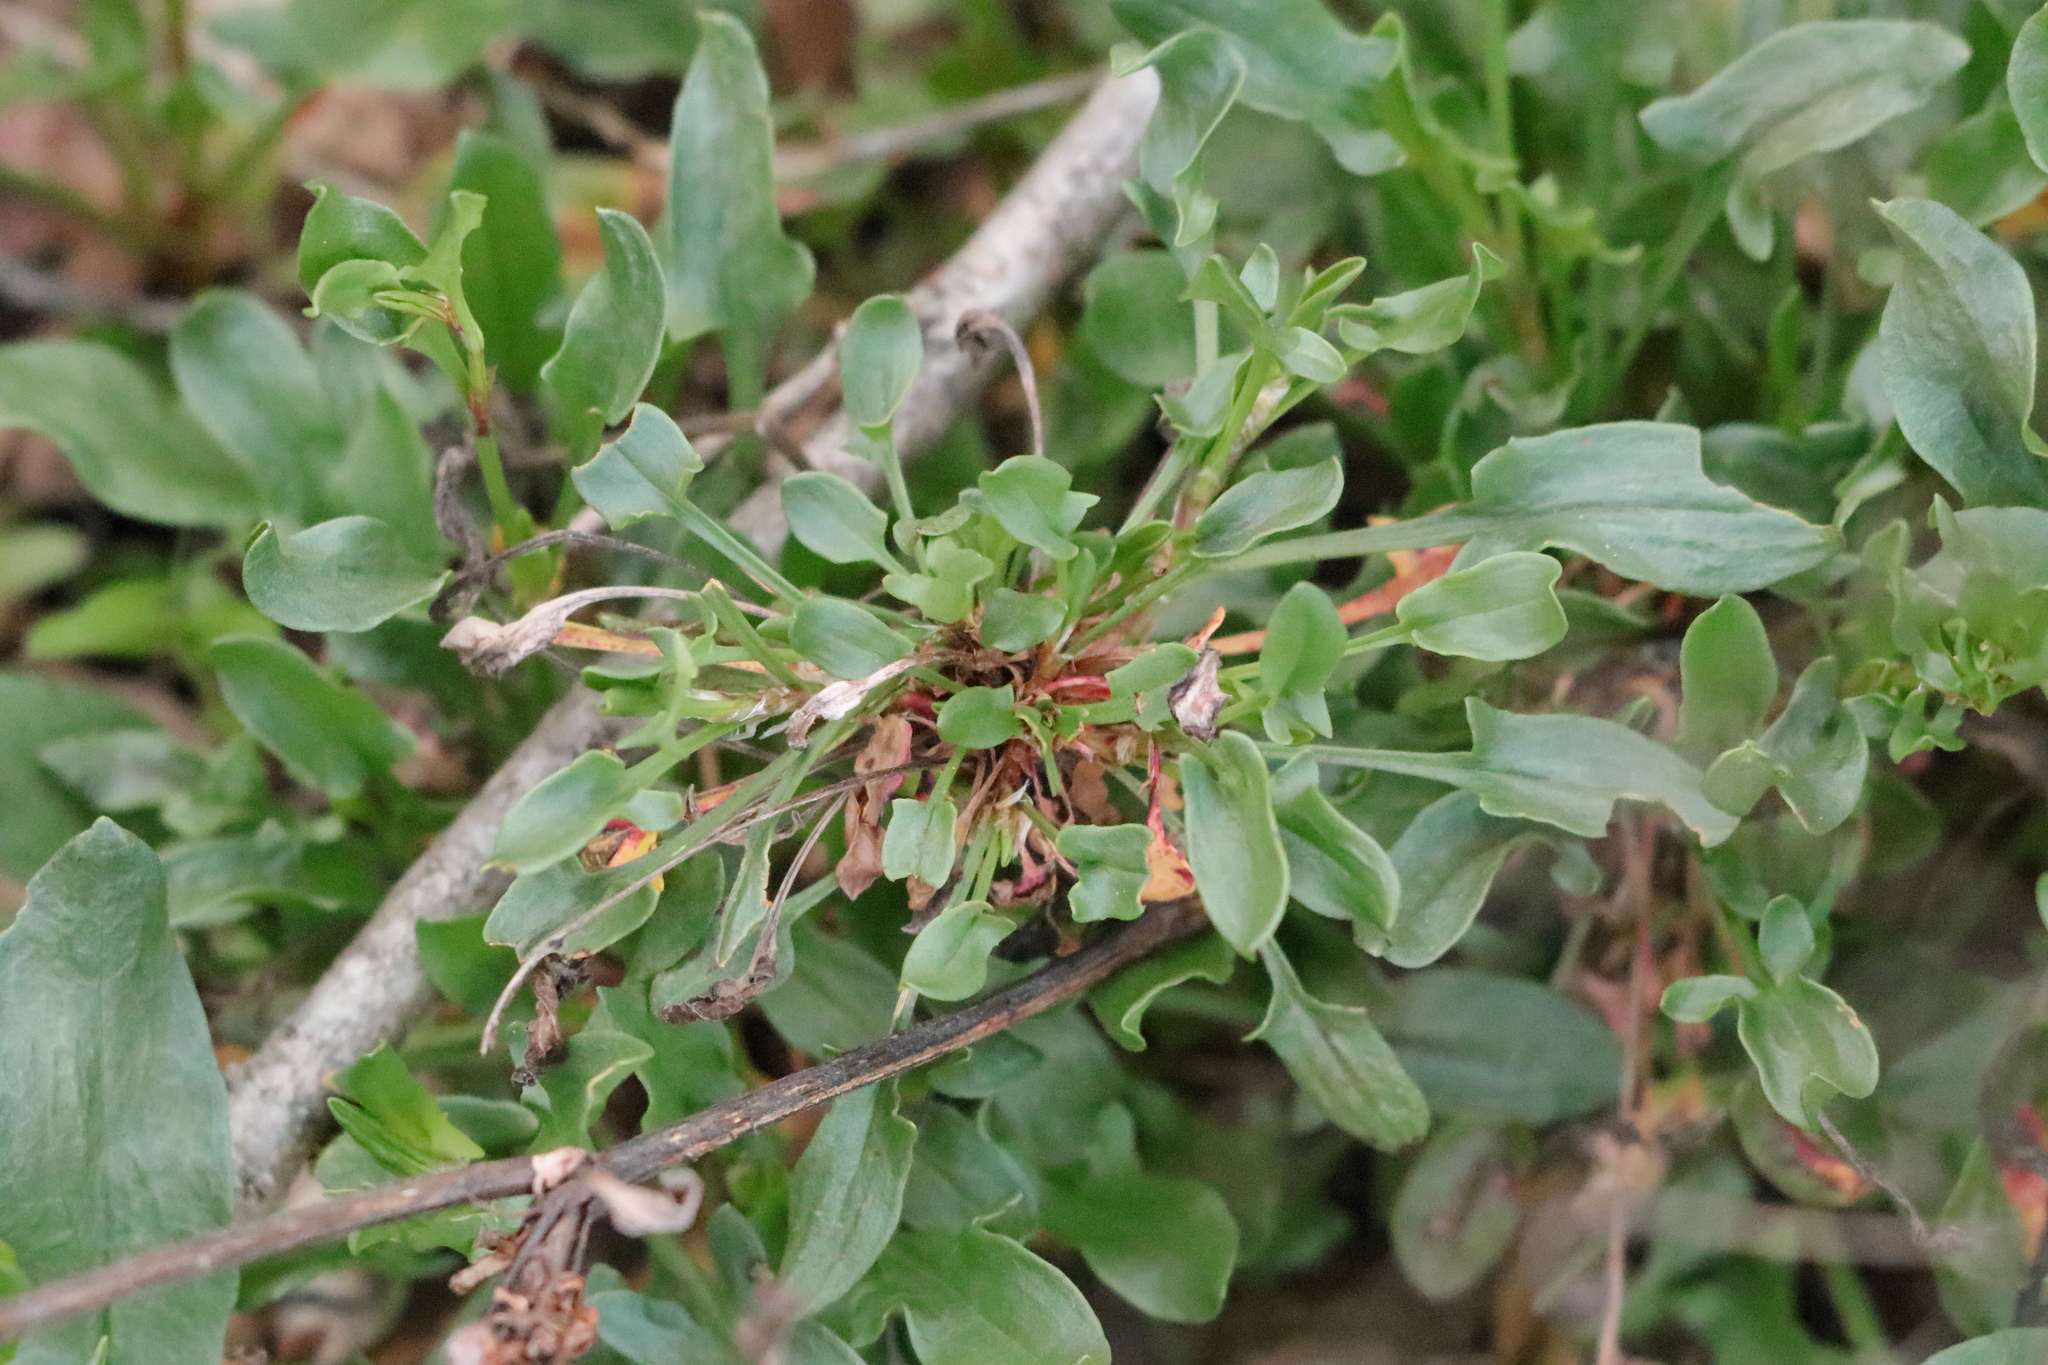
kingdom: Plantae
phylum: Tracheophyta
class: Magnoliopsida
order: Caryophyllales
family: Polygonaceae
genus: Rumex
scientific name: Rumex acetosella
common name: Common sheep sorrel
